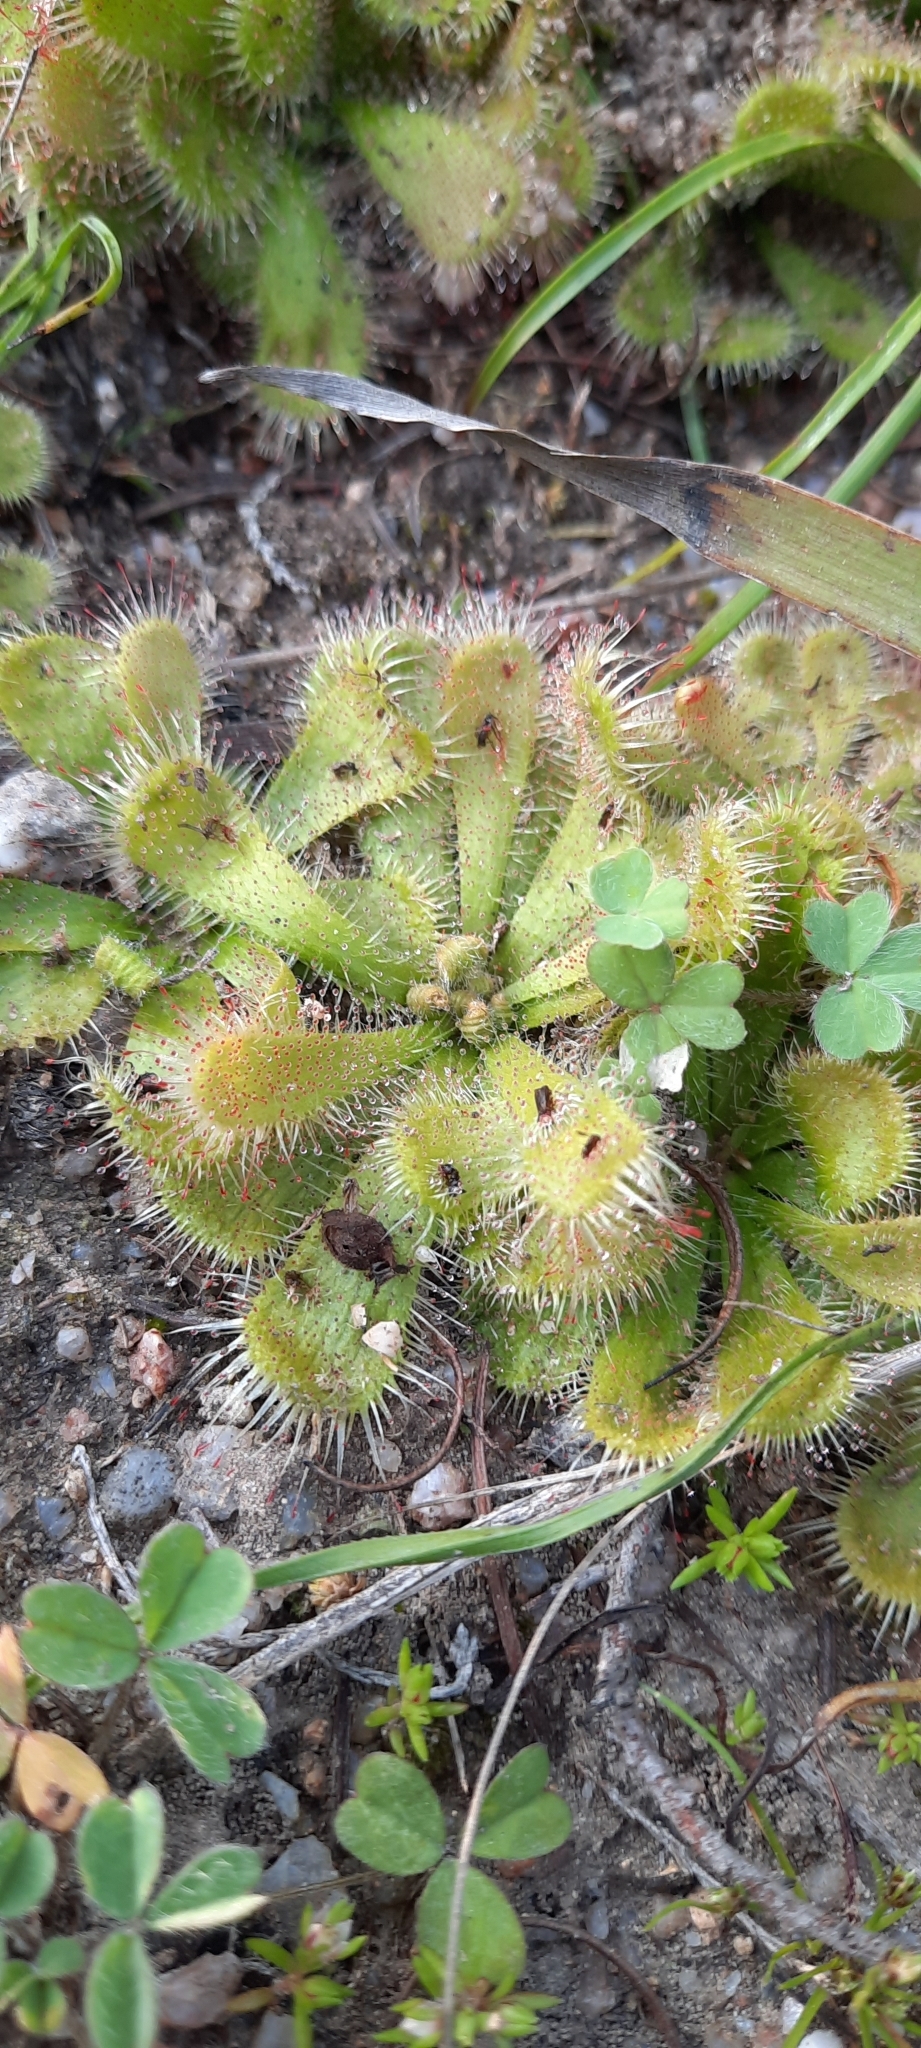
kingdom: Plantae
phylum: Tracheophyta
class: Magnoliopsida
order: Caryophyllales
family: Droseraceae
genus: Drosera
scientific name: Drosera pauciflora
